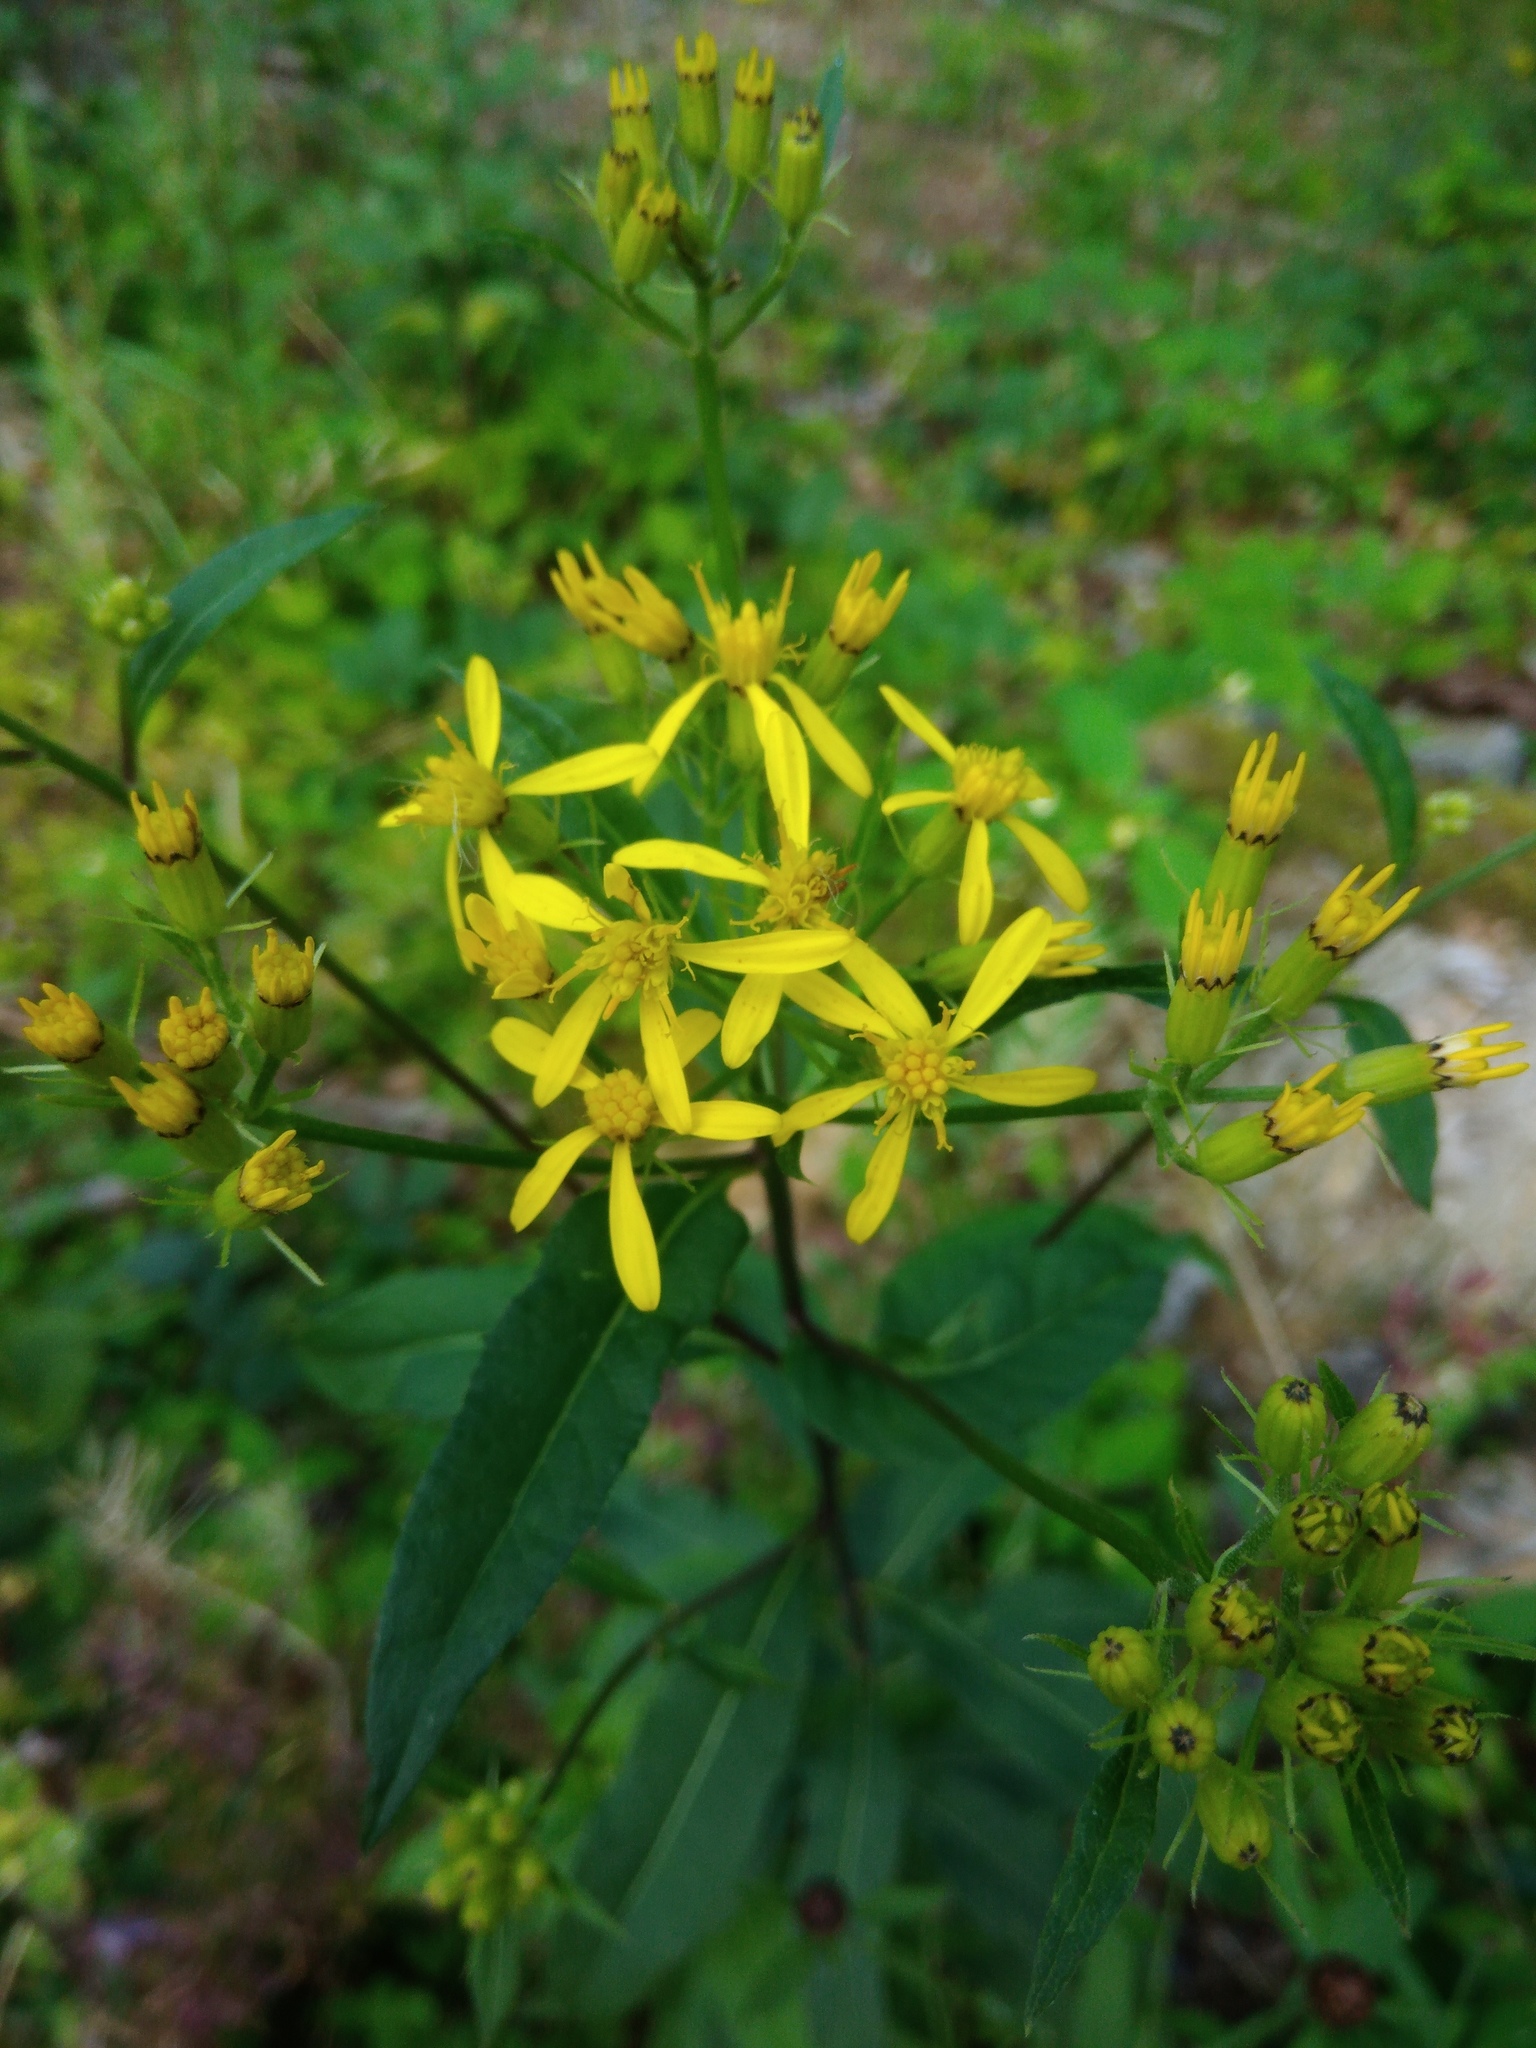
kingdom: Plantae
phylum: Tracheophyta
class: Magnoliopsida
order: Asterales
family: Asteraceae
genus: Senecio
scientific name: Senecio ovatus
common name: Wood ragwort
